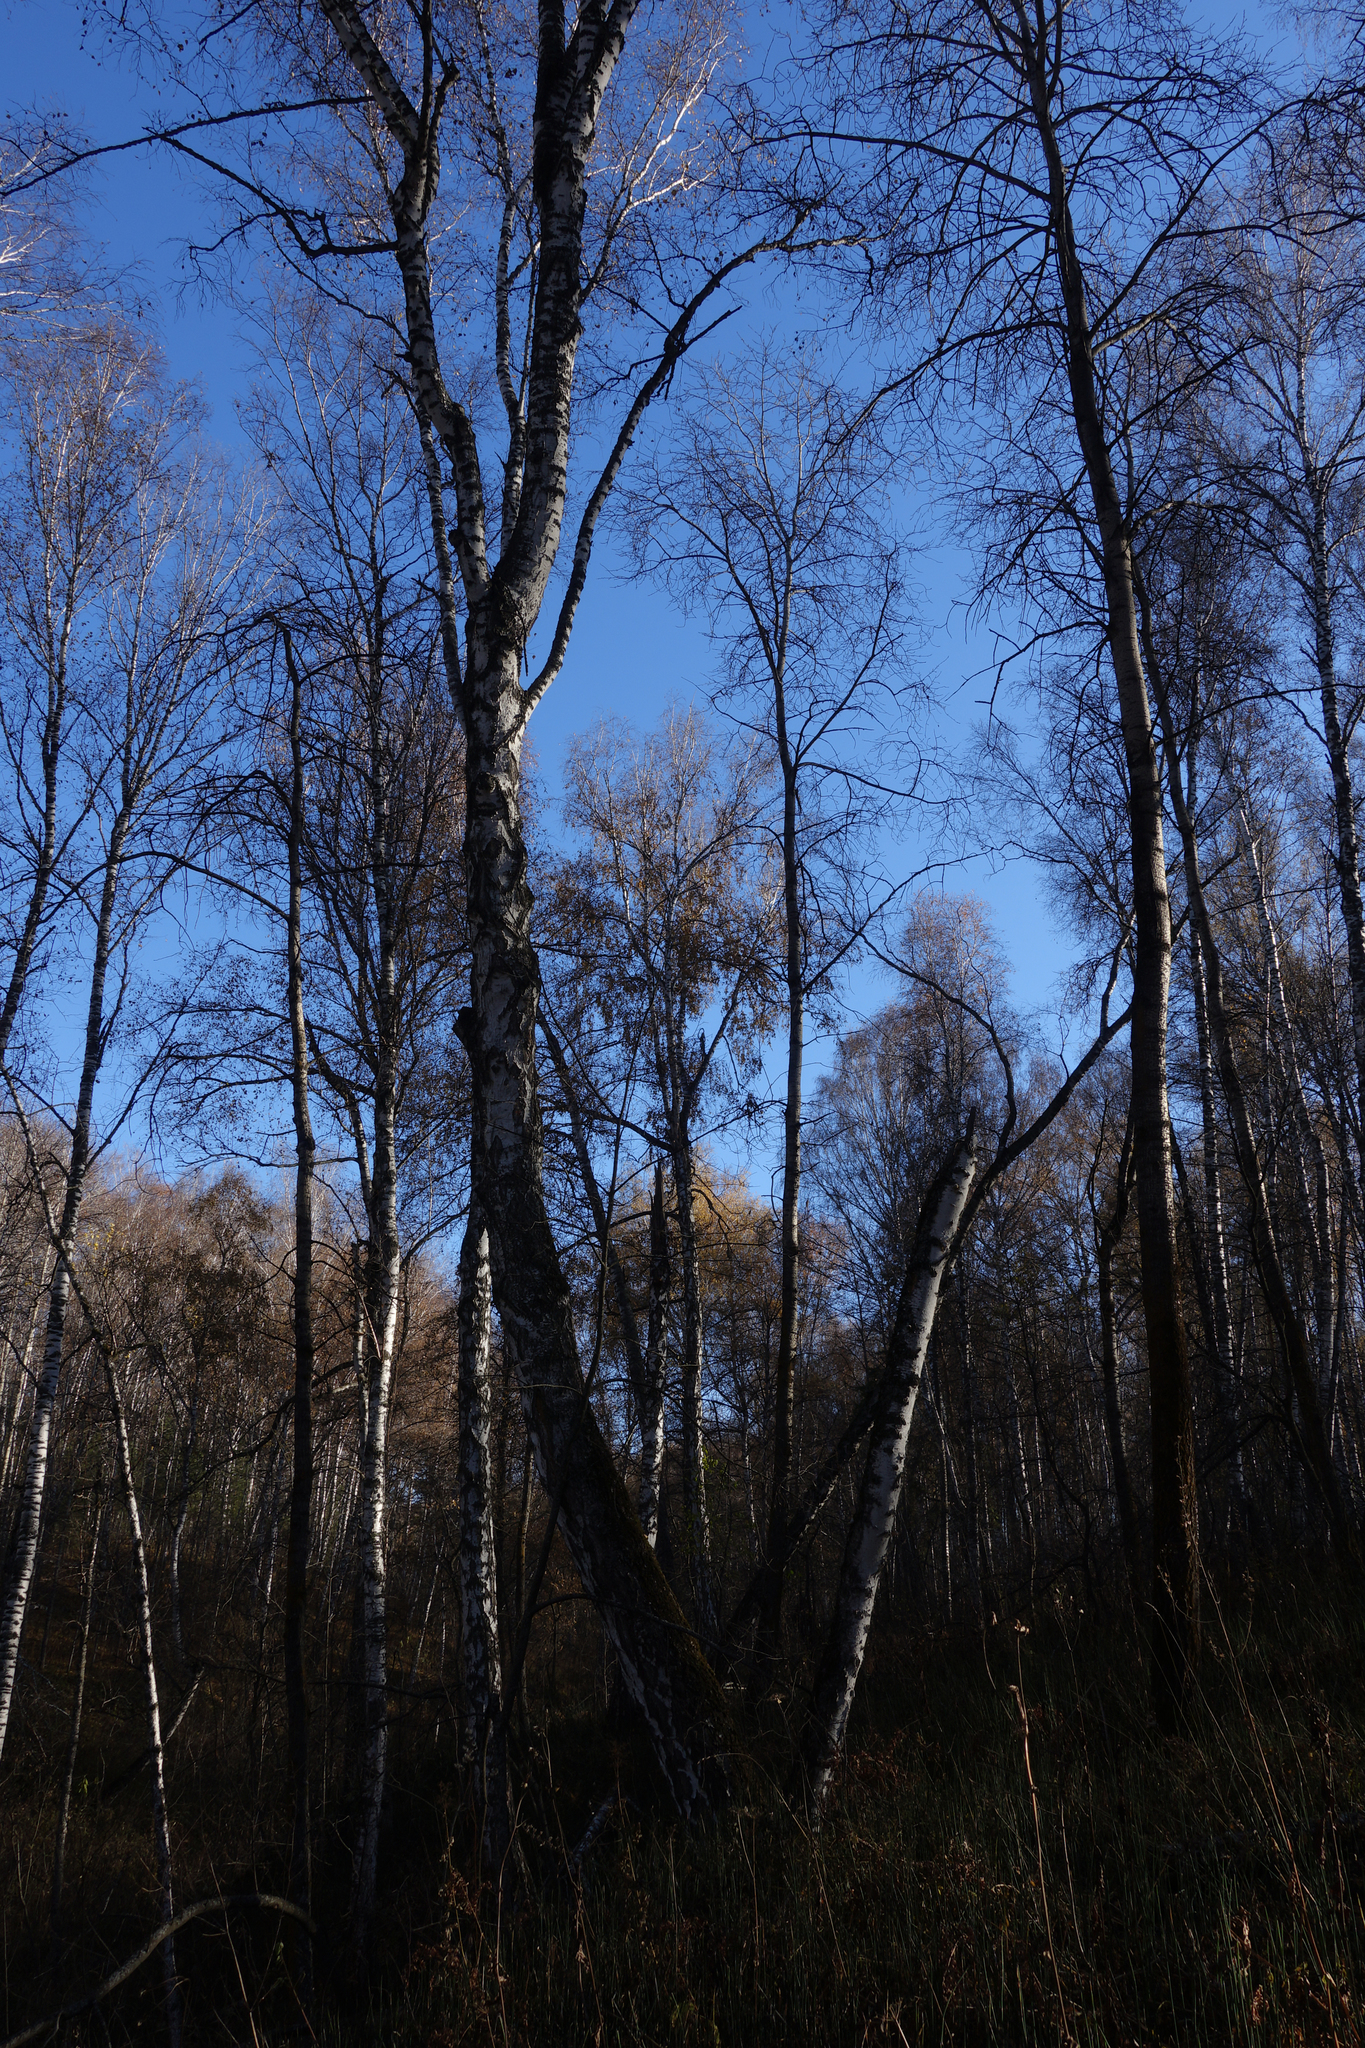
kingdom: Plantae
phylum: Tracheophyta
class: Magnoliopsida
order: Fagales
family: Betulaceae
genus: Betula
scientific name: Betula pendula
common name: Silver birch
